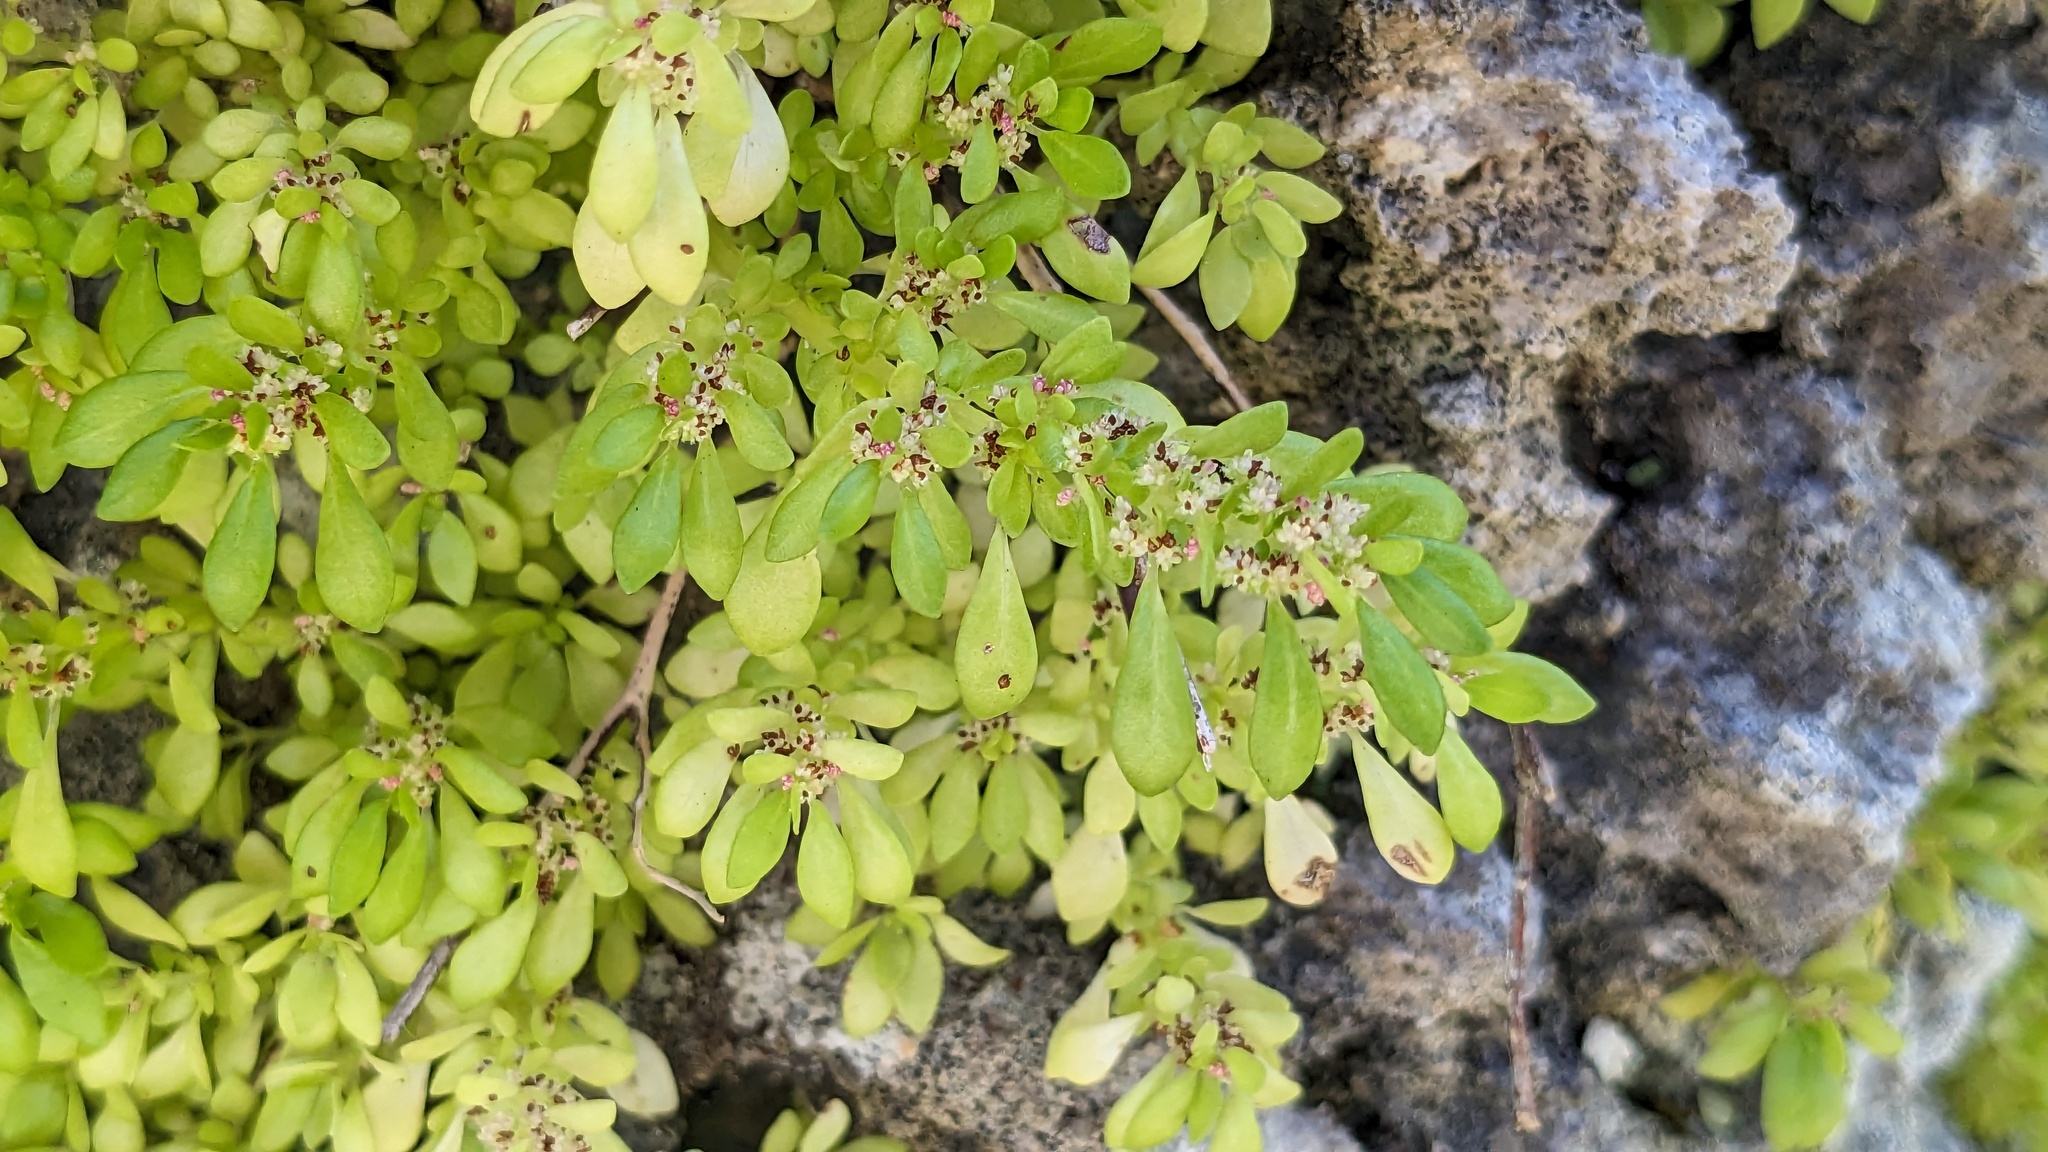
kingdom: Plantae
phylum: Tracheophyta
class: Magnoliopsida
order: Rosales
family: Urticaceae
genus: Pilea
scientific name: Pilea microphylla
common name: Artillery-plant
